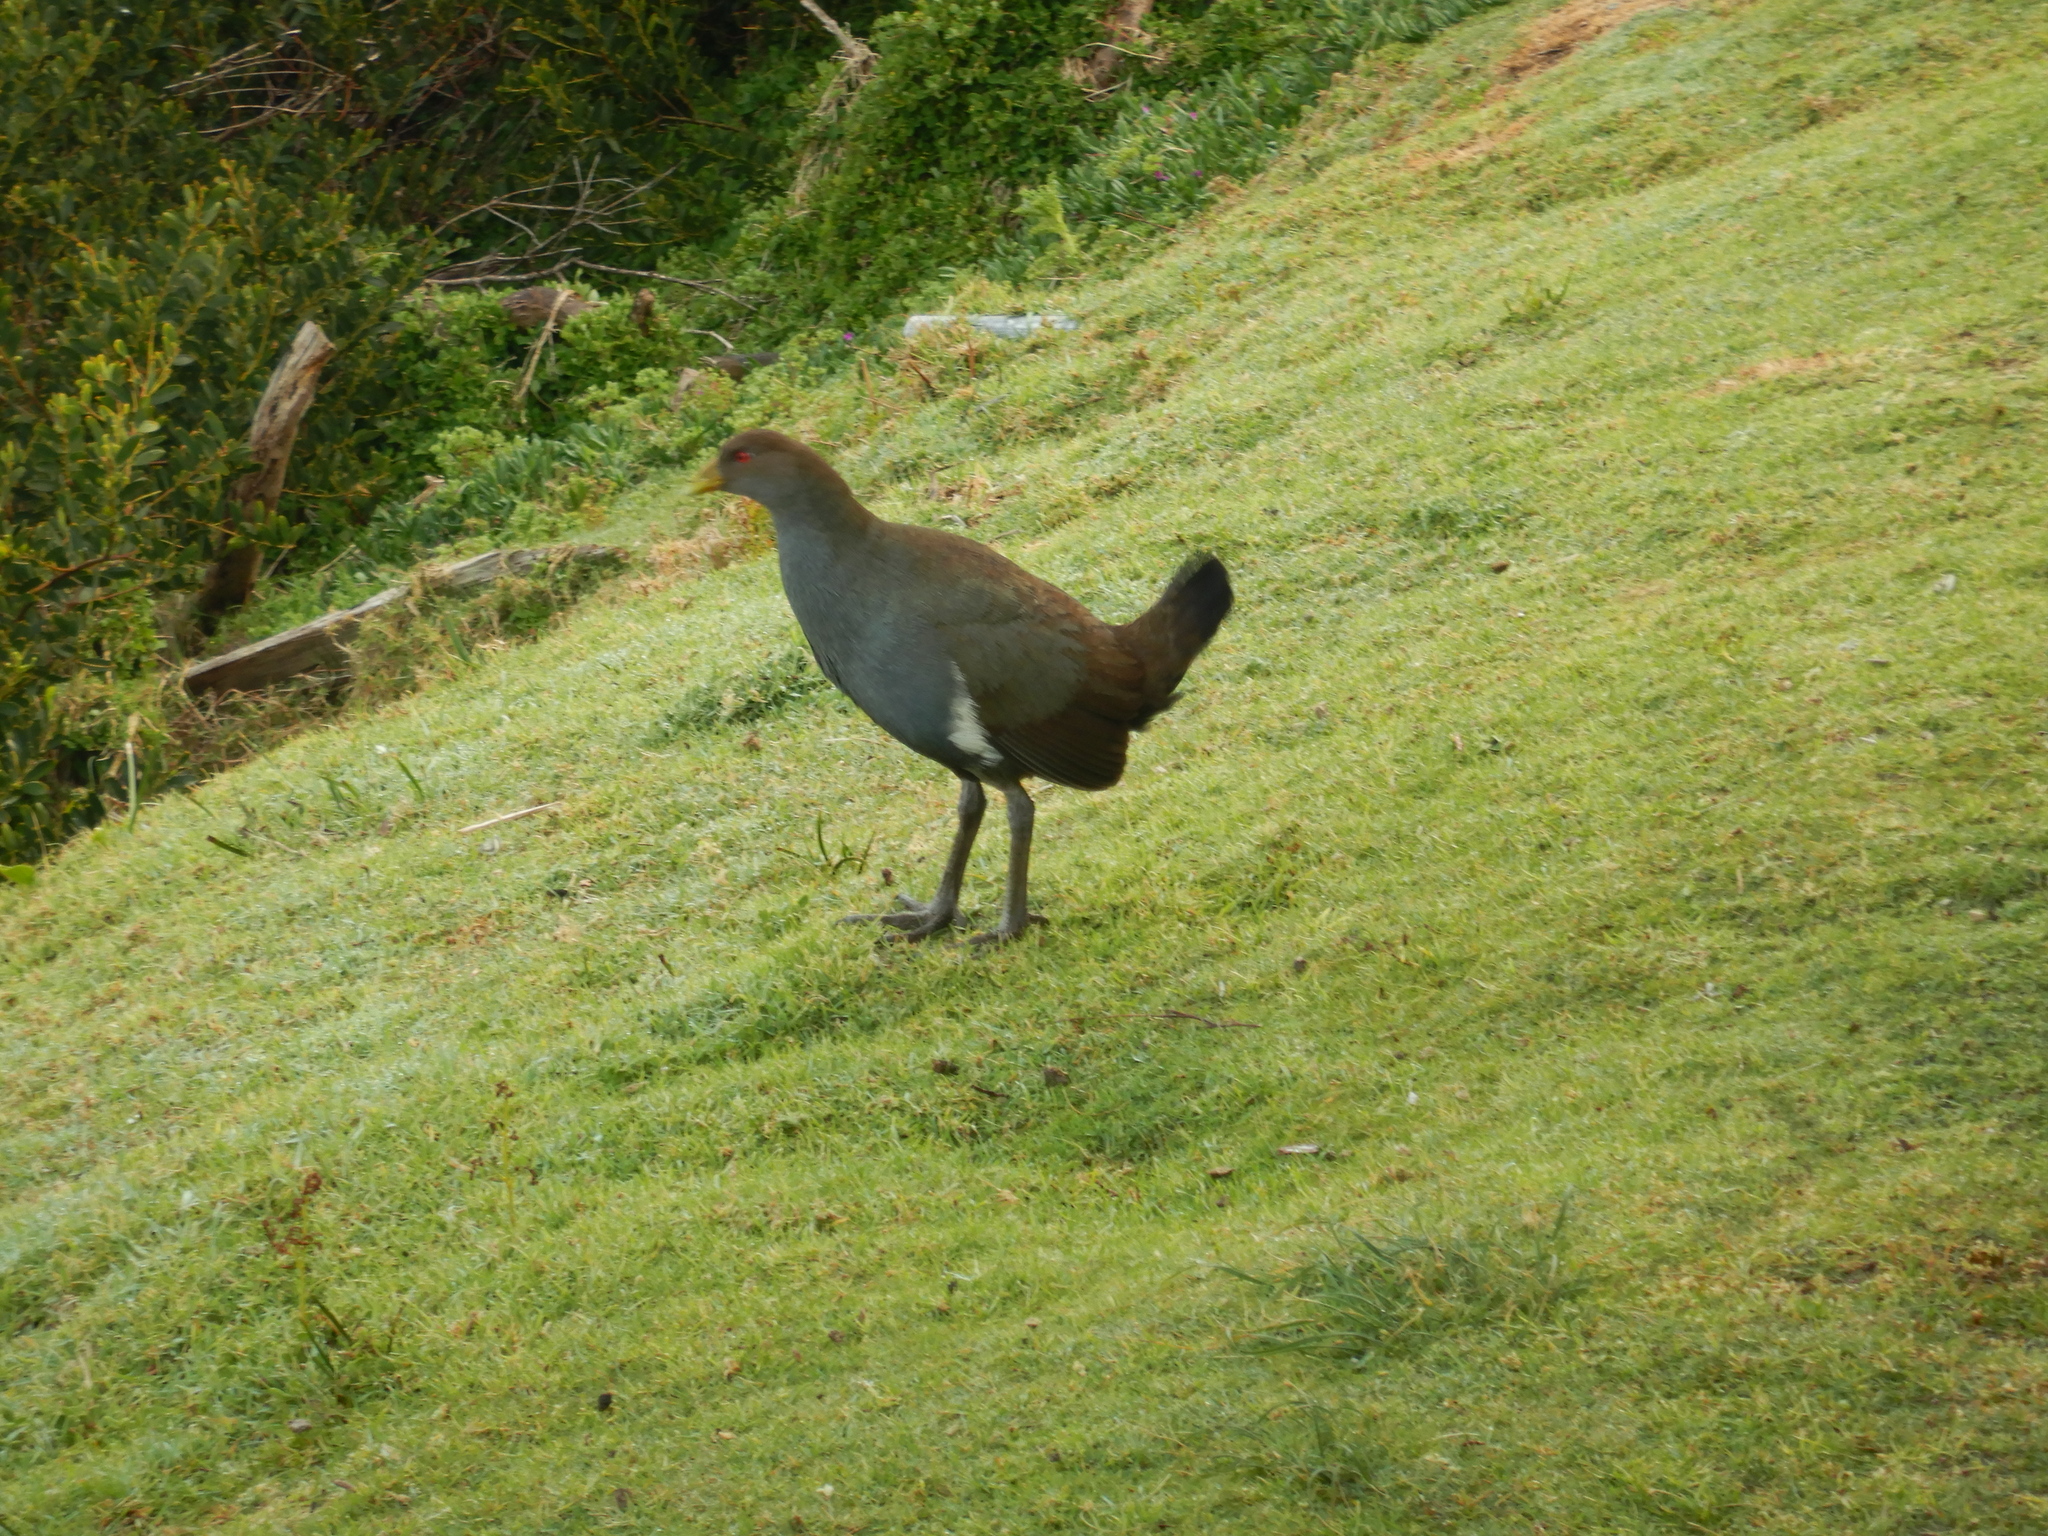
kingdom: Animalia
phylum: Chordata
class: Aves
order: Gruiformes
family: Rallidae
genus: Gallinula
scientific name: Gallinula mortierii
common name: Tasmanian nativehen
